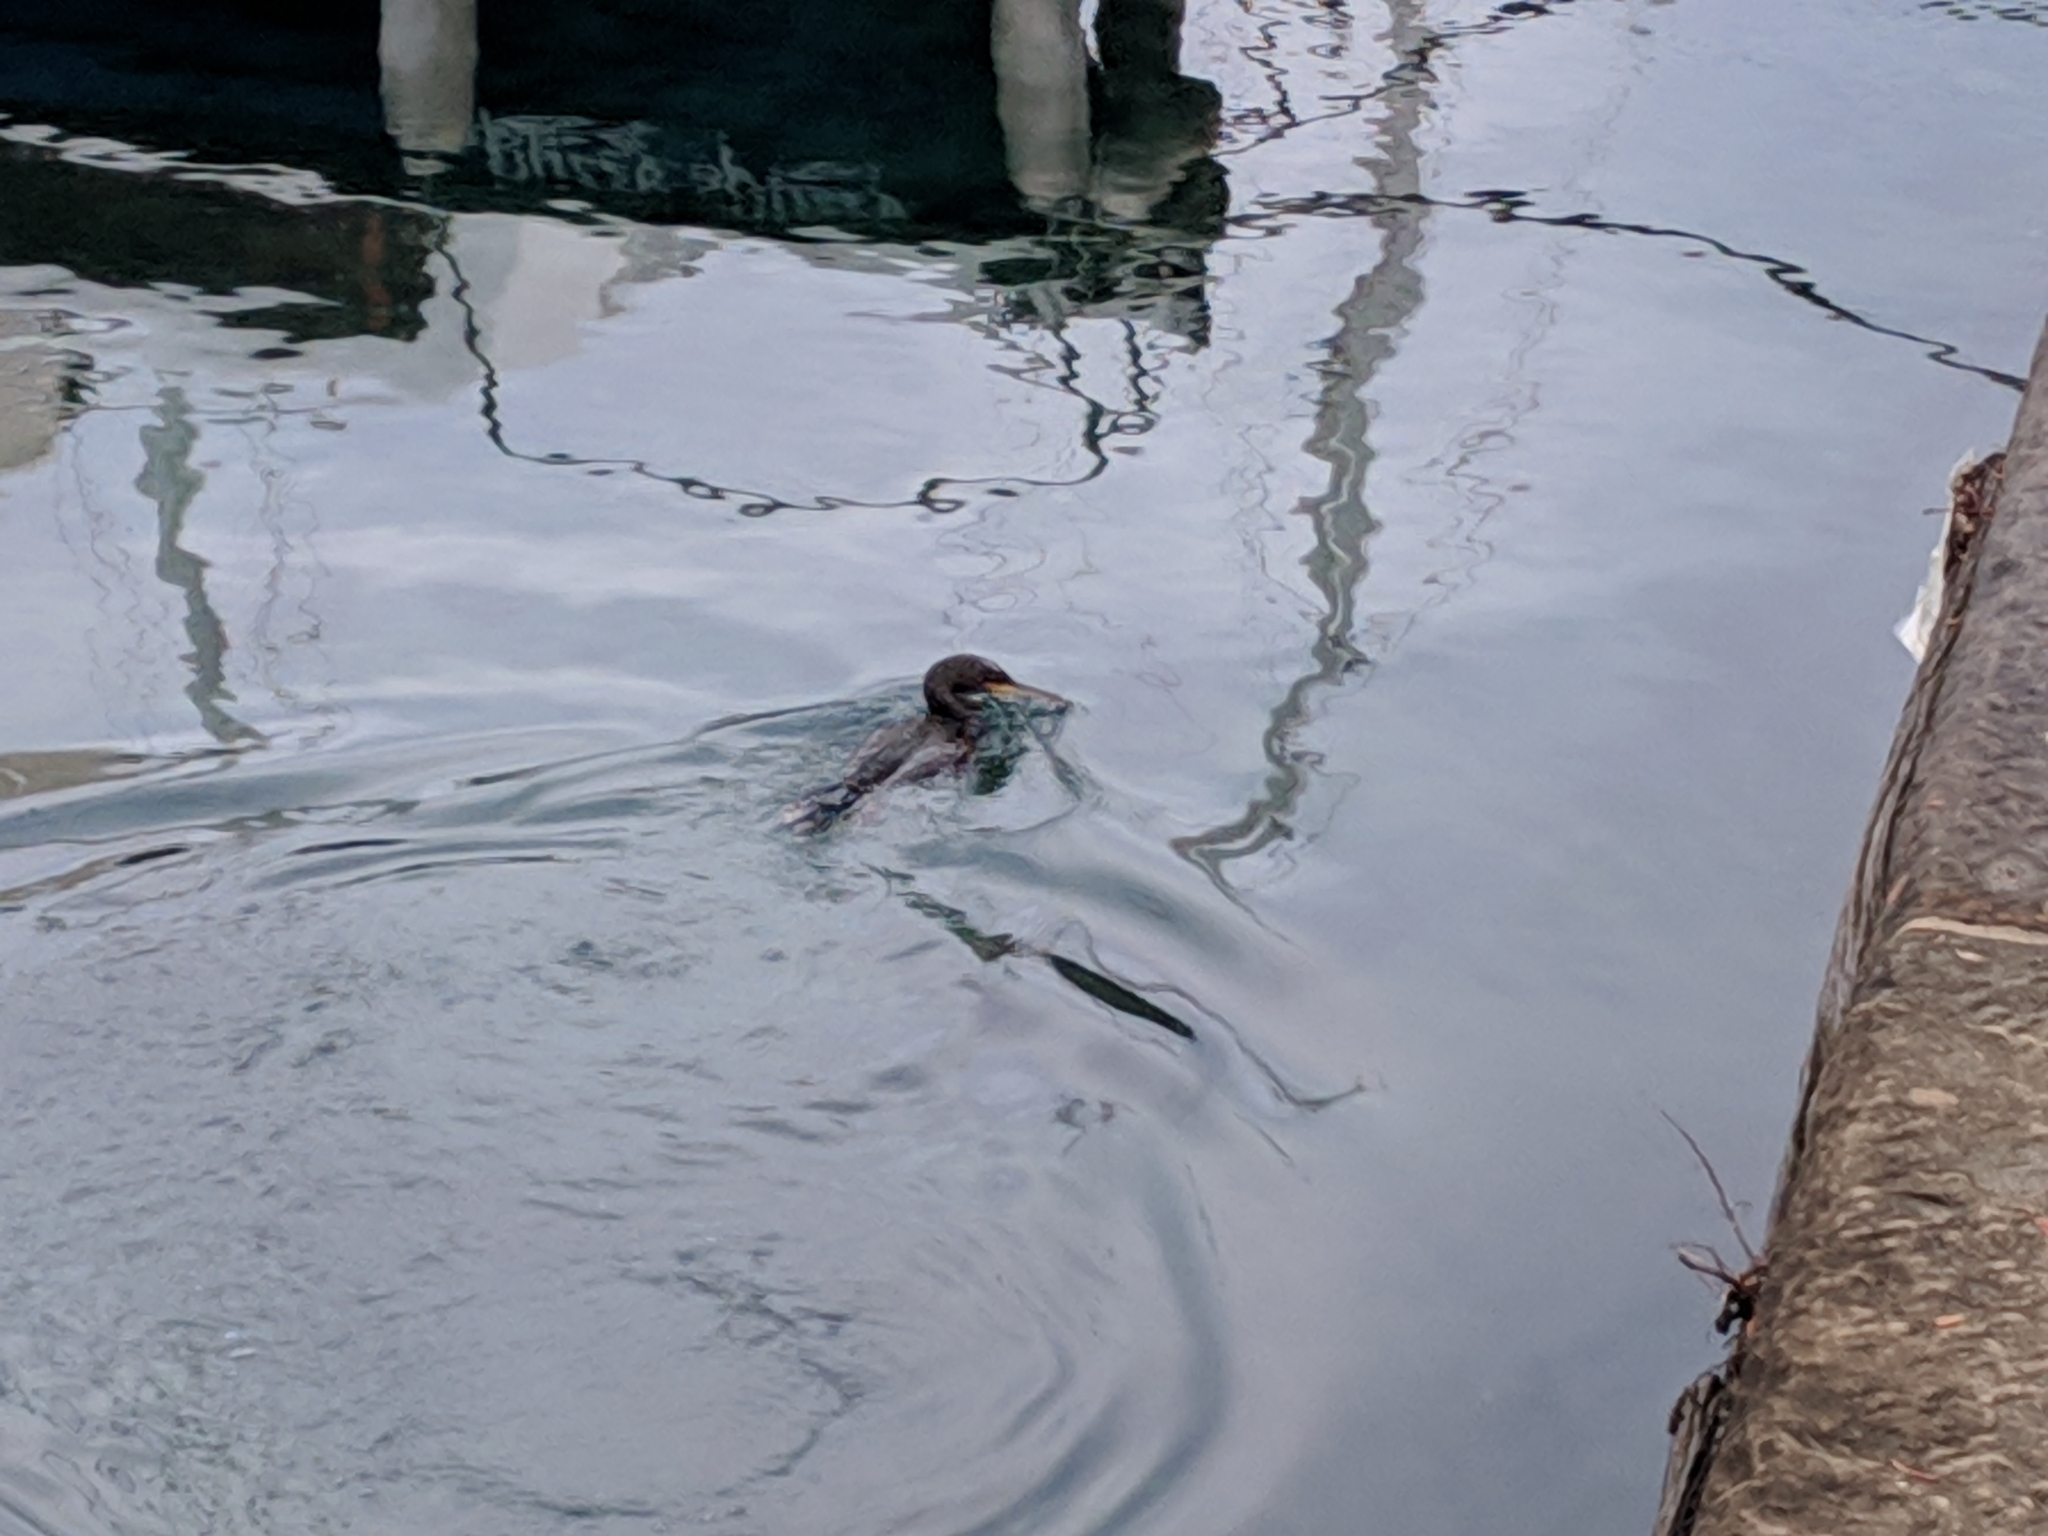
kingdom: Animalia
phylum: Chordata
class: Aves
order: Suliformes
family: Phalacrocoracidae
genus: Phalacrocorax
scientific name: Phalacrocorax aristotelis
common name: European shag
